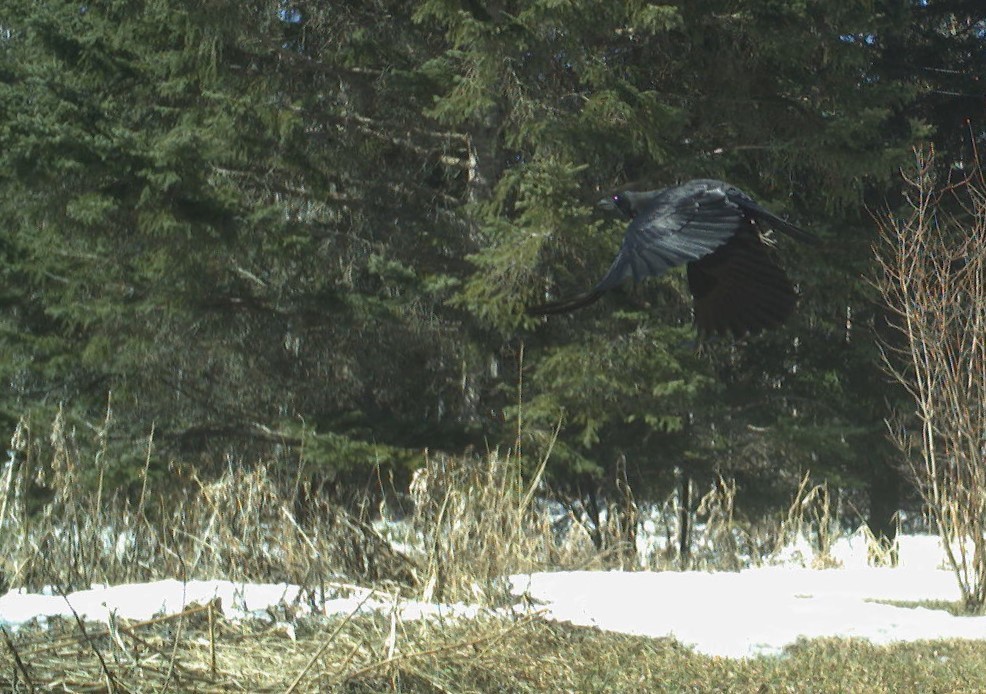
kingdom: Animalia
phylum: Chordata
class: Aves
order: Passeriformes
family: Corvidae
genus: Corvus
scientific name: Corvus brachyrhynchos
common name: American crow
